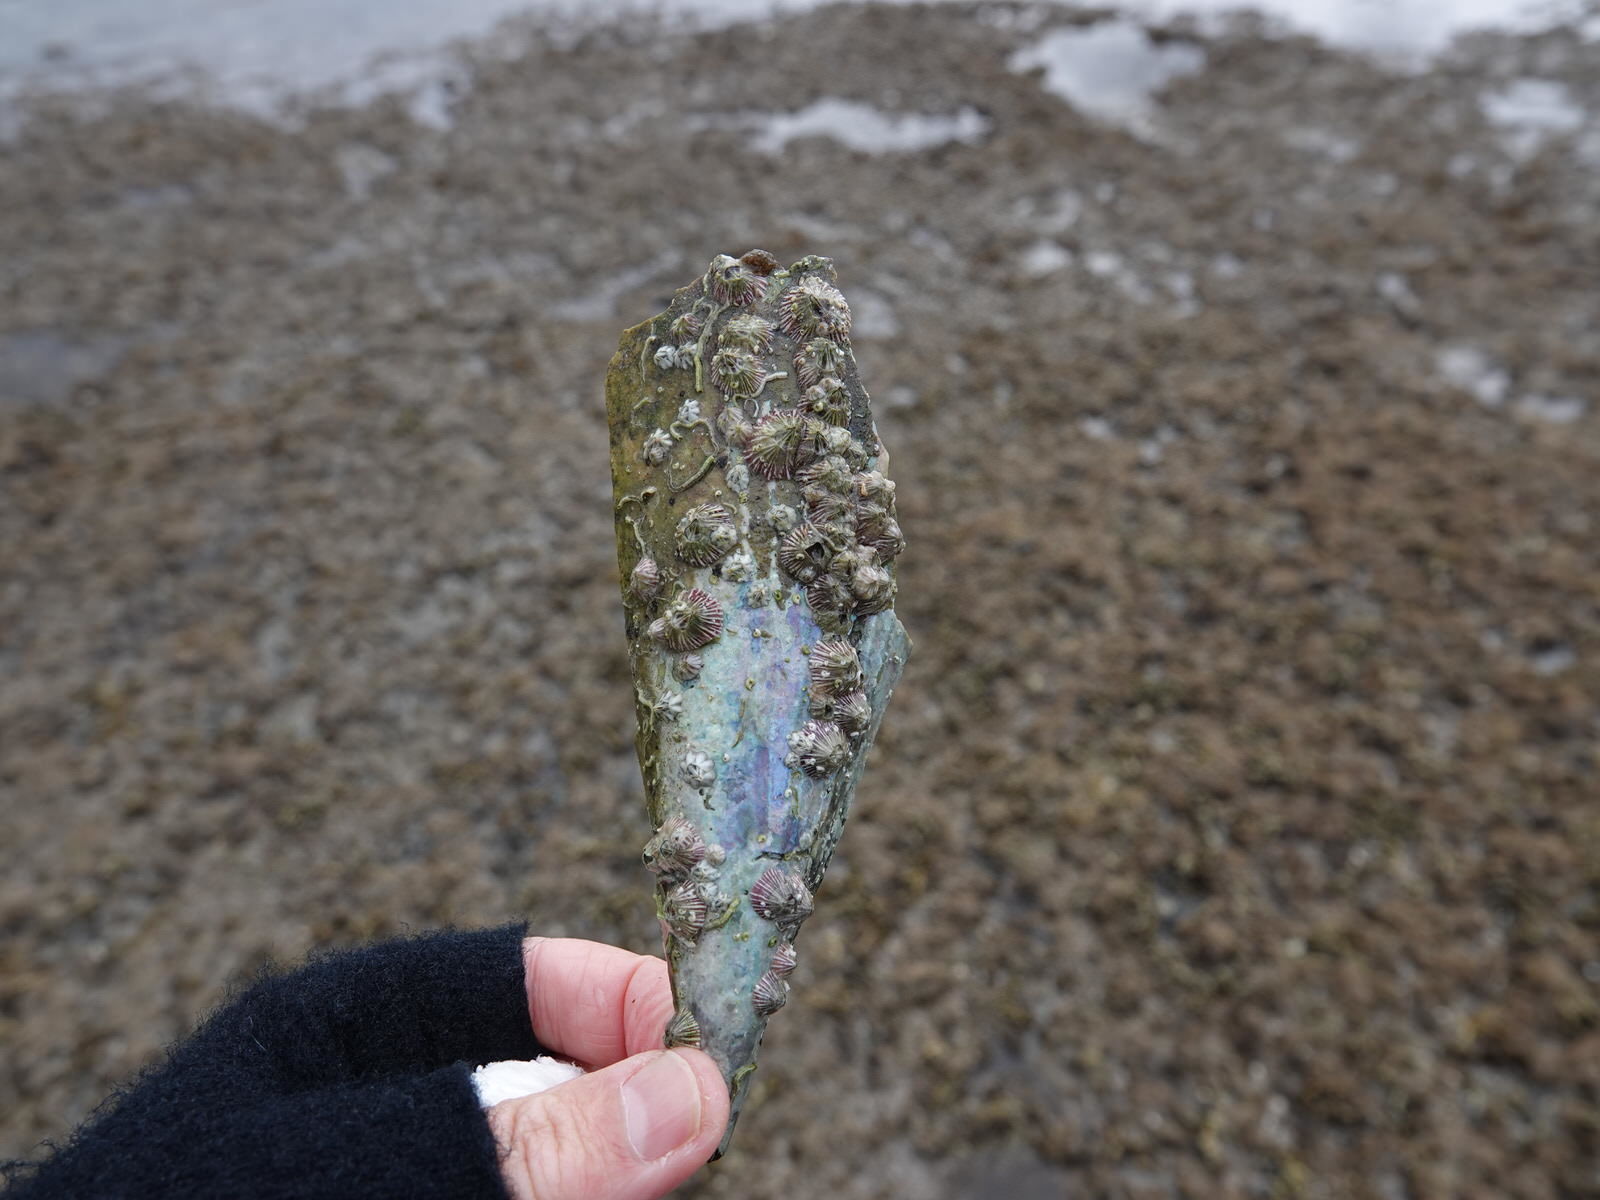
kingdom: Animalia
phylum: Arthropoda
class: Maxillopoda
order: Sessilia
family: Balanidae
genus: Balanus
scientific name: Balanus trigonus
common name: Triangle barnacle
